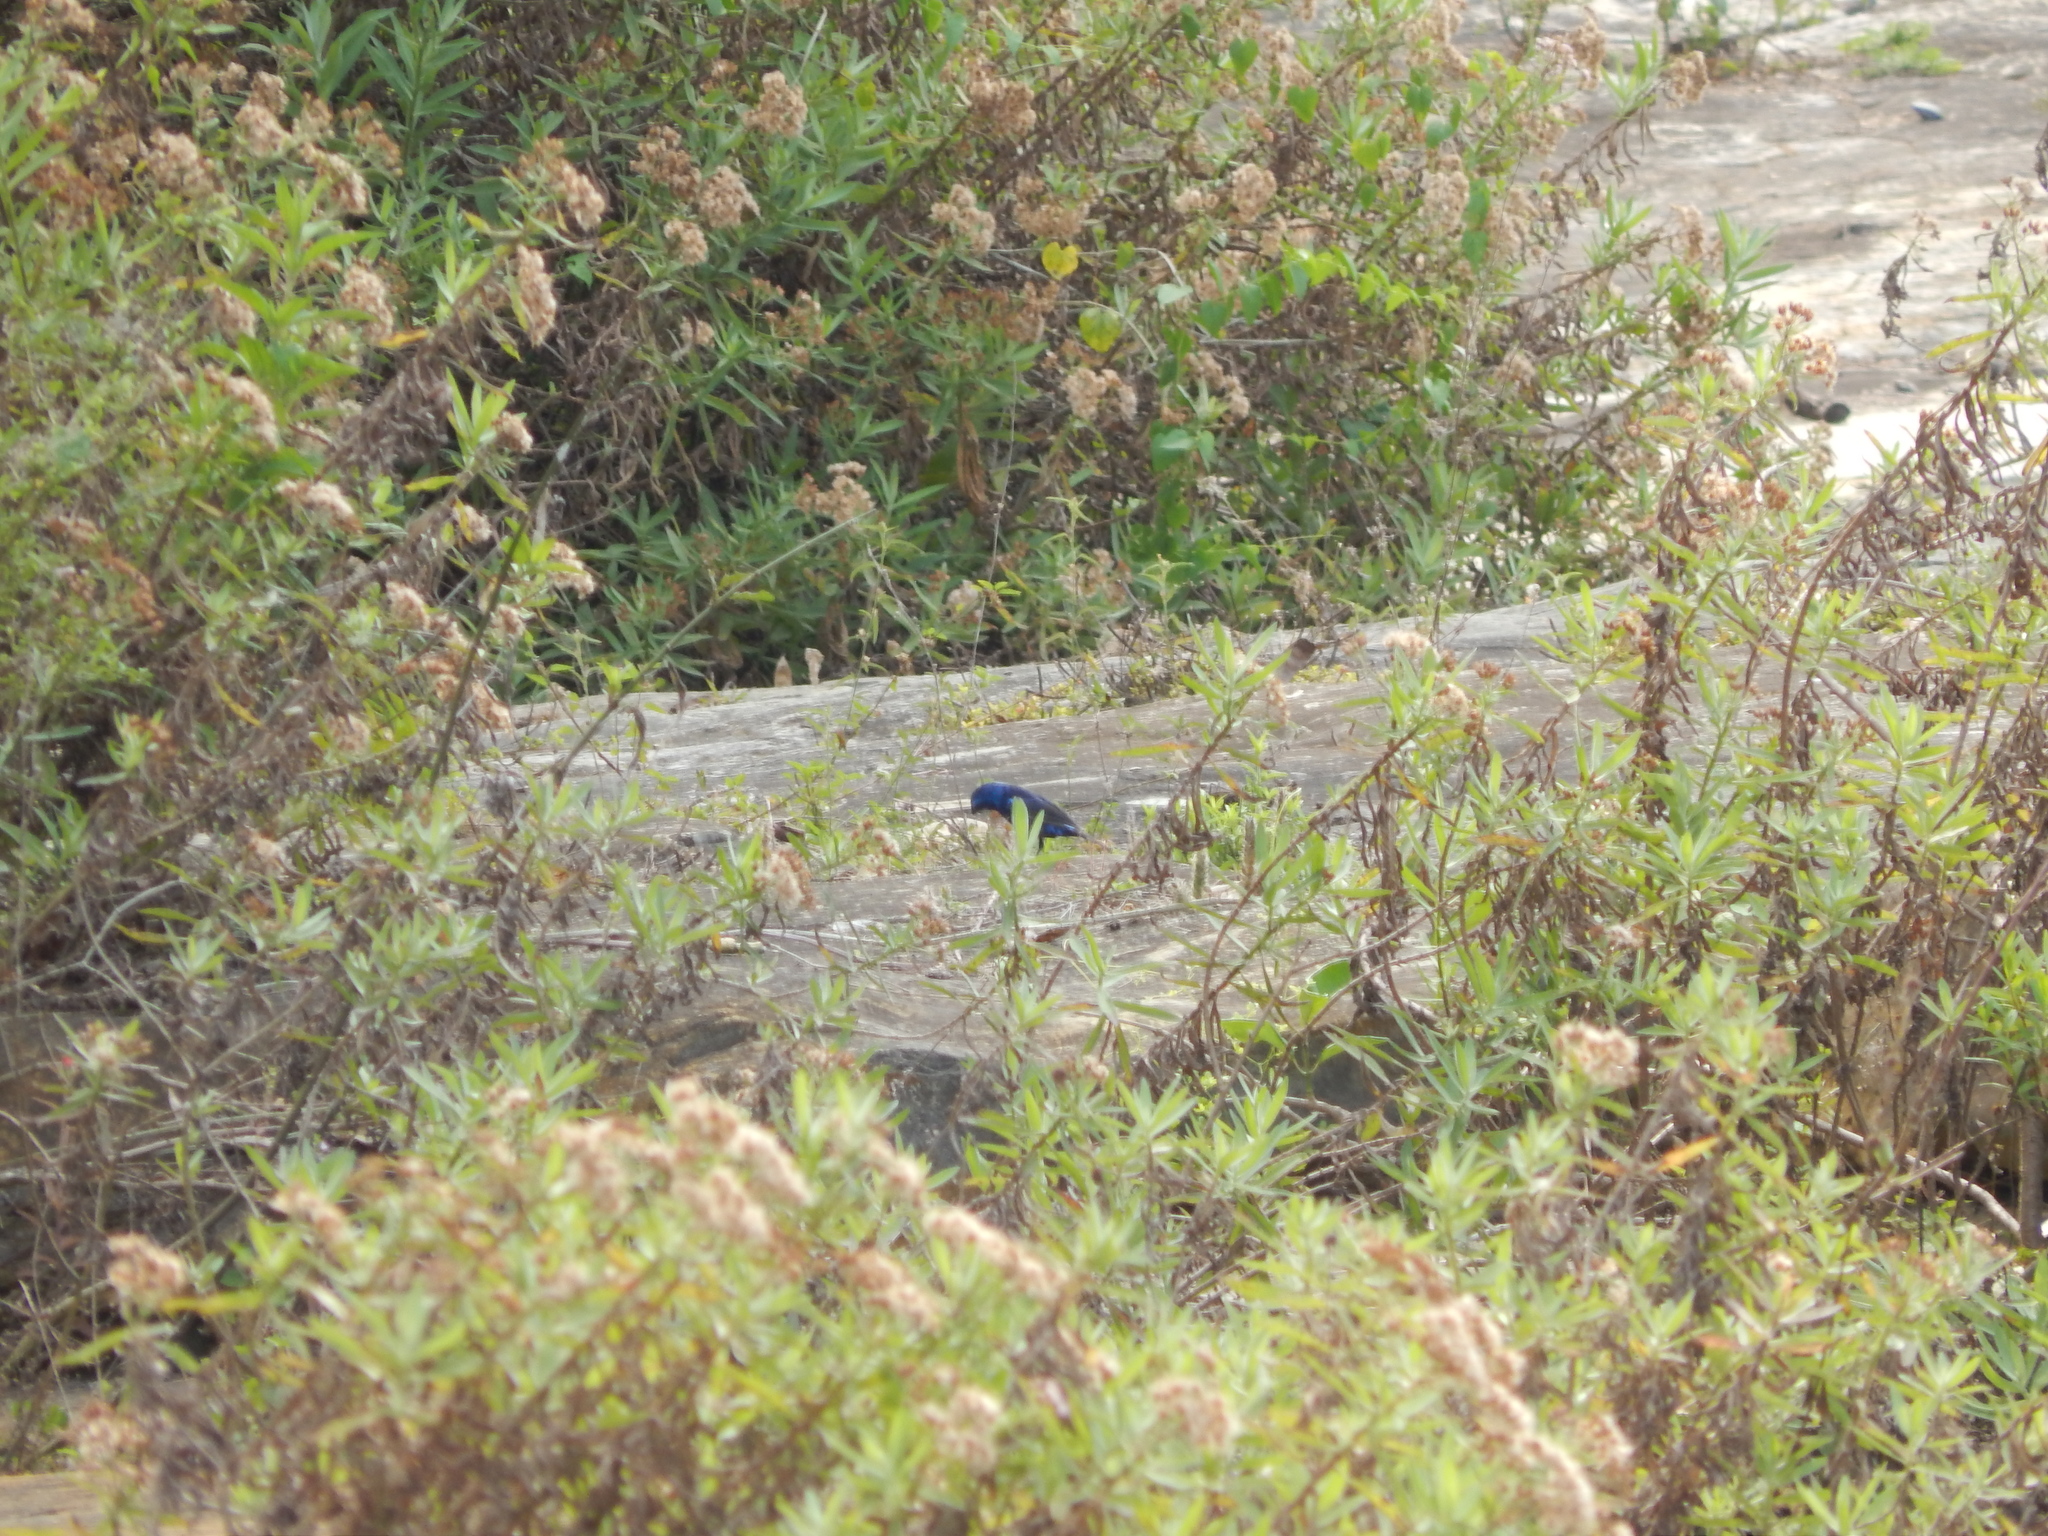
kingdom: Animalia
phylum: Chordata
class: Aves
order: Passeriformes
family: Cardinalidae
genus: Cyanocompsa
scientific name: Cyanocompsa parellina
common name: Blue bunting
